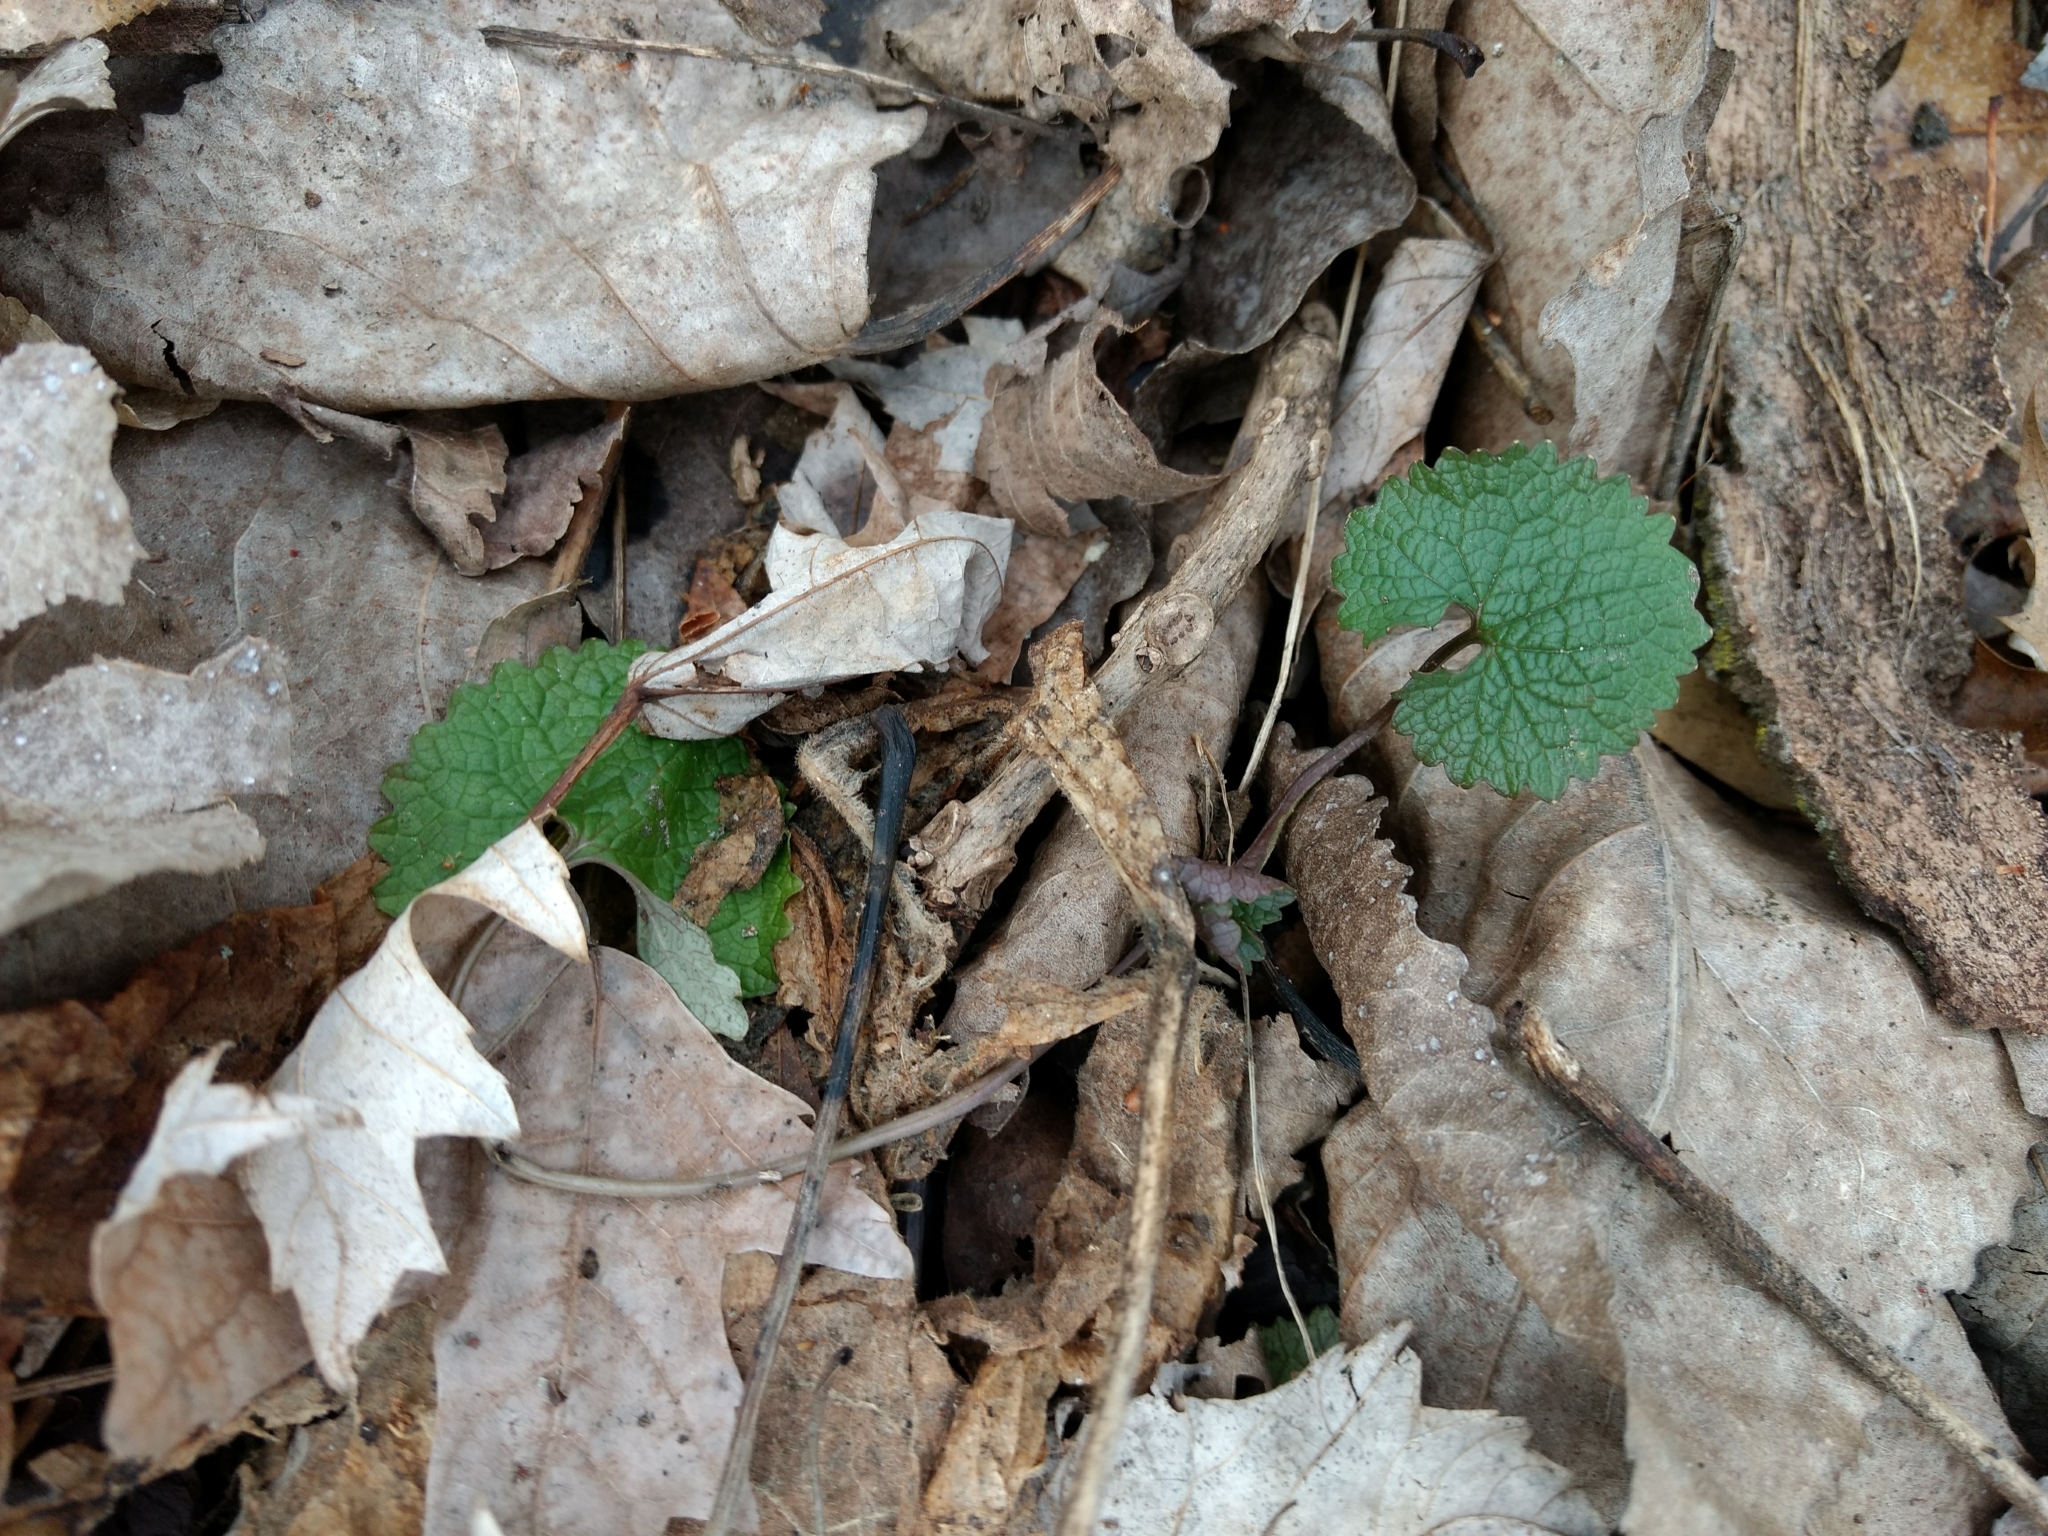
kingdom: Plantae
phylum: Tracheophyta
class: Magnoliopsida
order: Brassicales
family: Brassicaceae
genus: Alliaria
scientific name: Alliaria petiolata
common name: Garlic mustard
